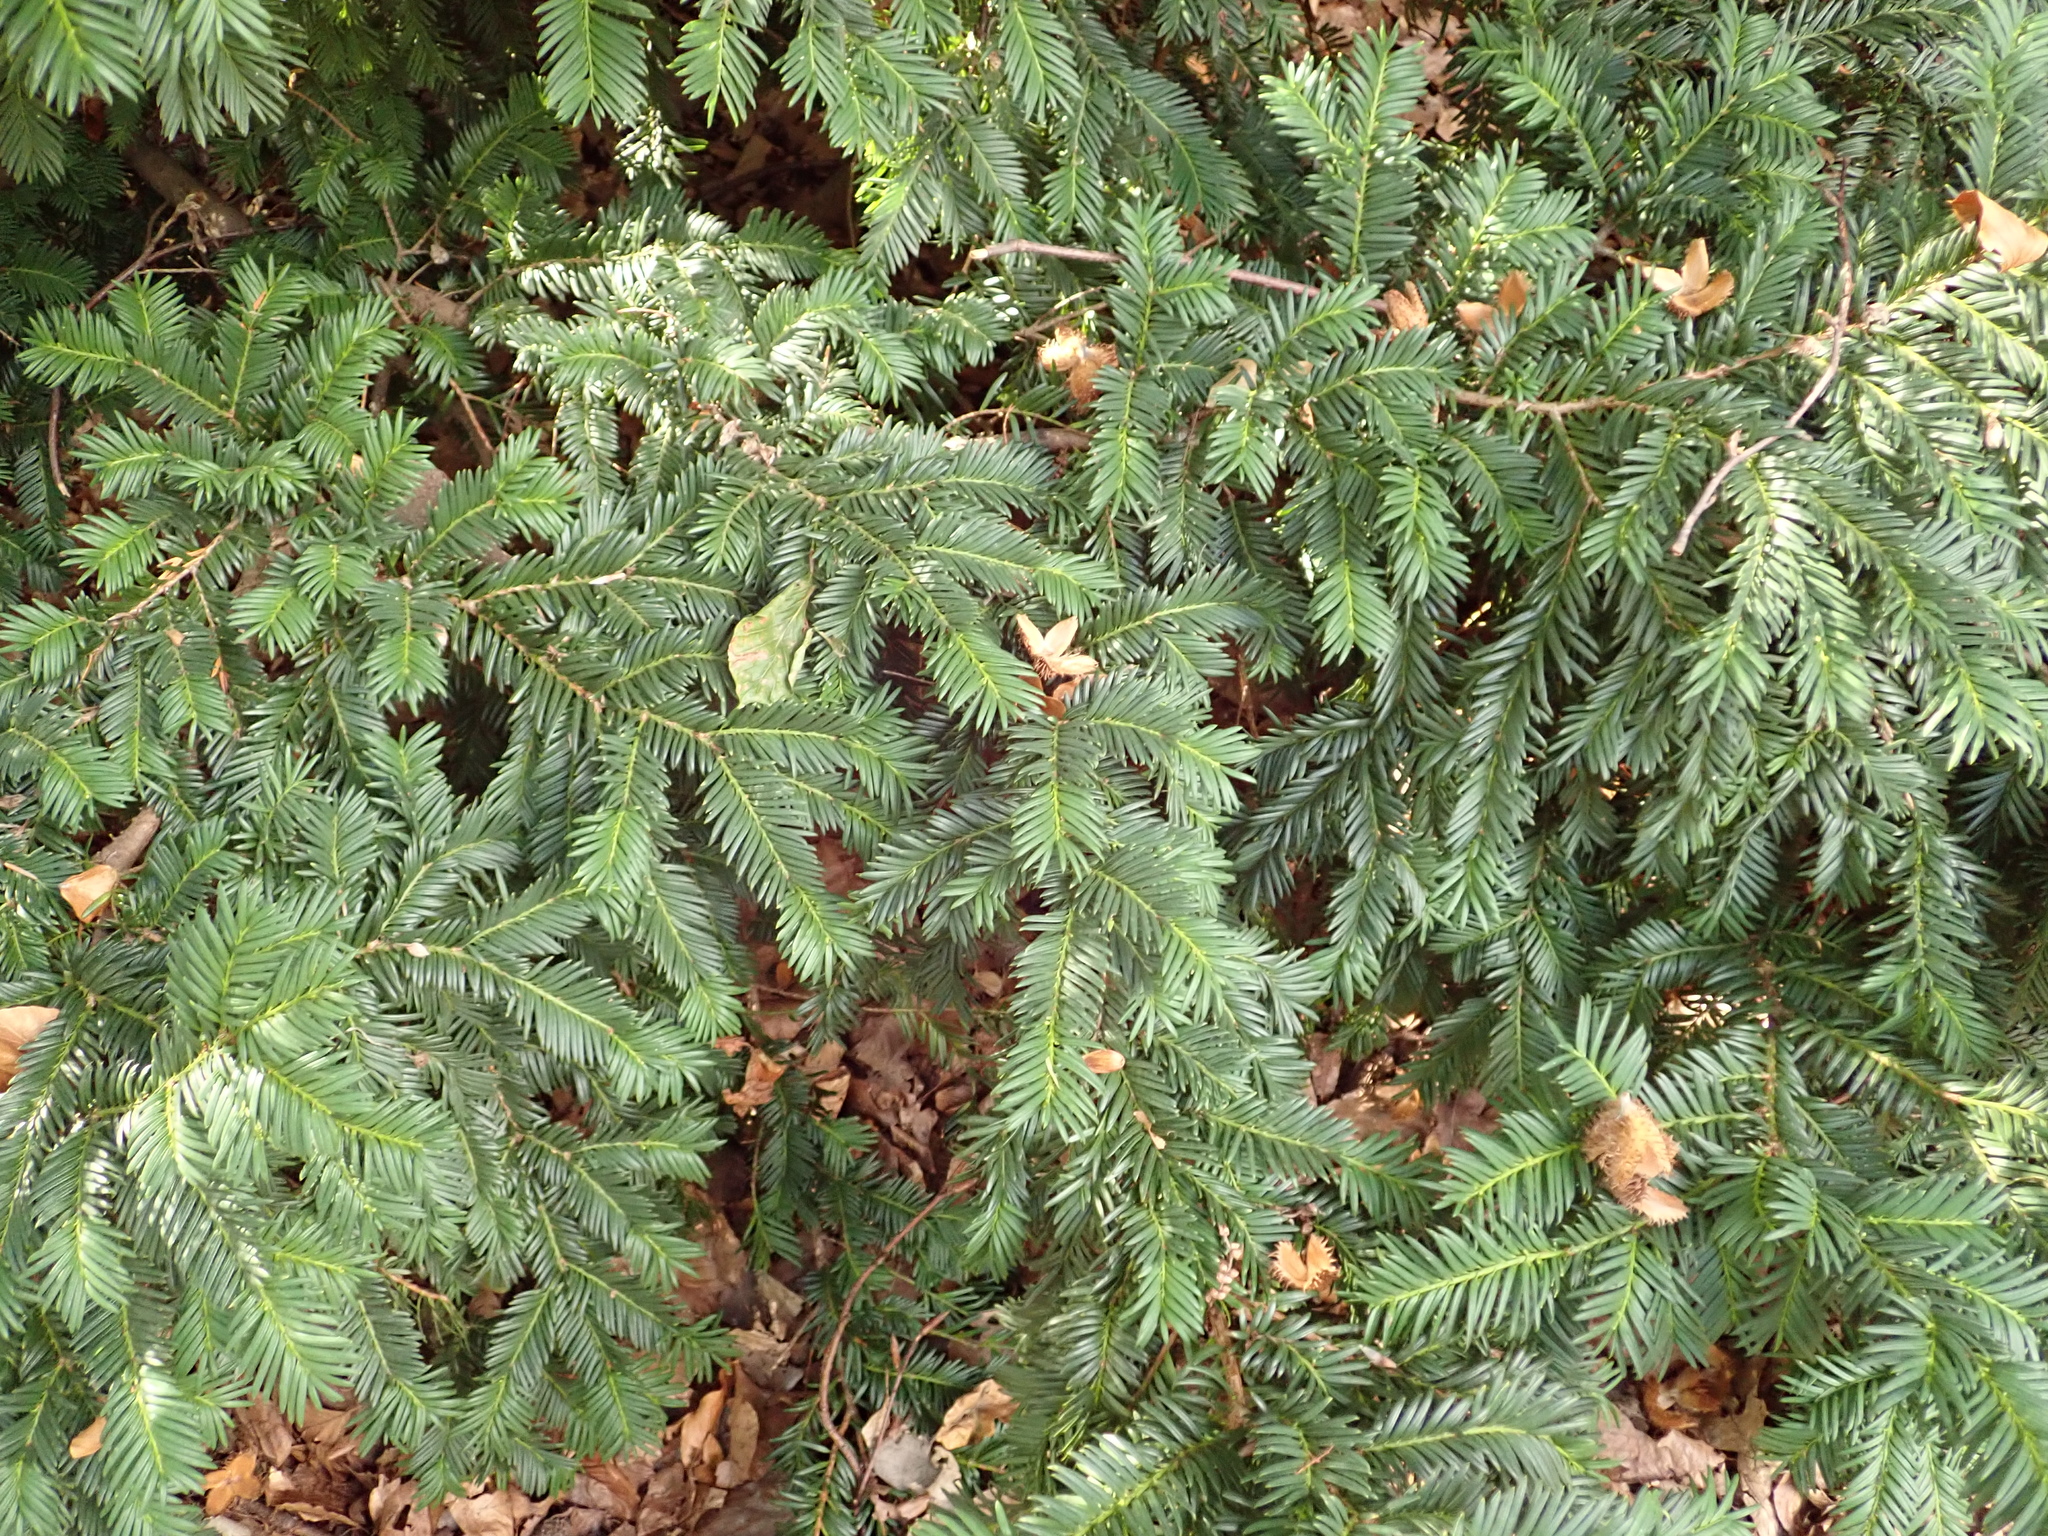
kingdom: Plantae
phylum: Tracheophyta
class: Pinopsida
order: Pinales
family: Taxaceae
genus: Taxus
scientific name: Taxus baccata
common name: Yew
